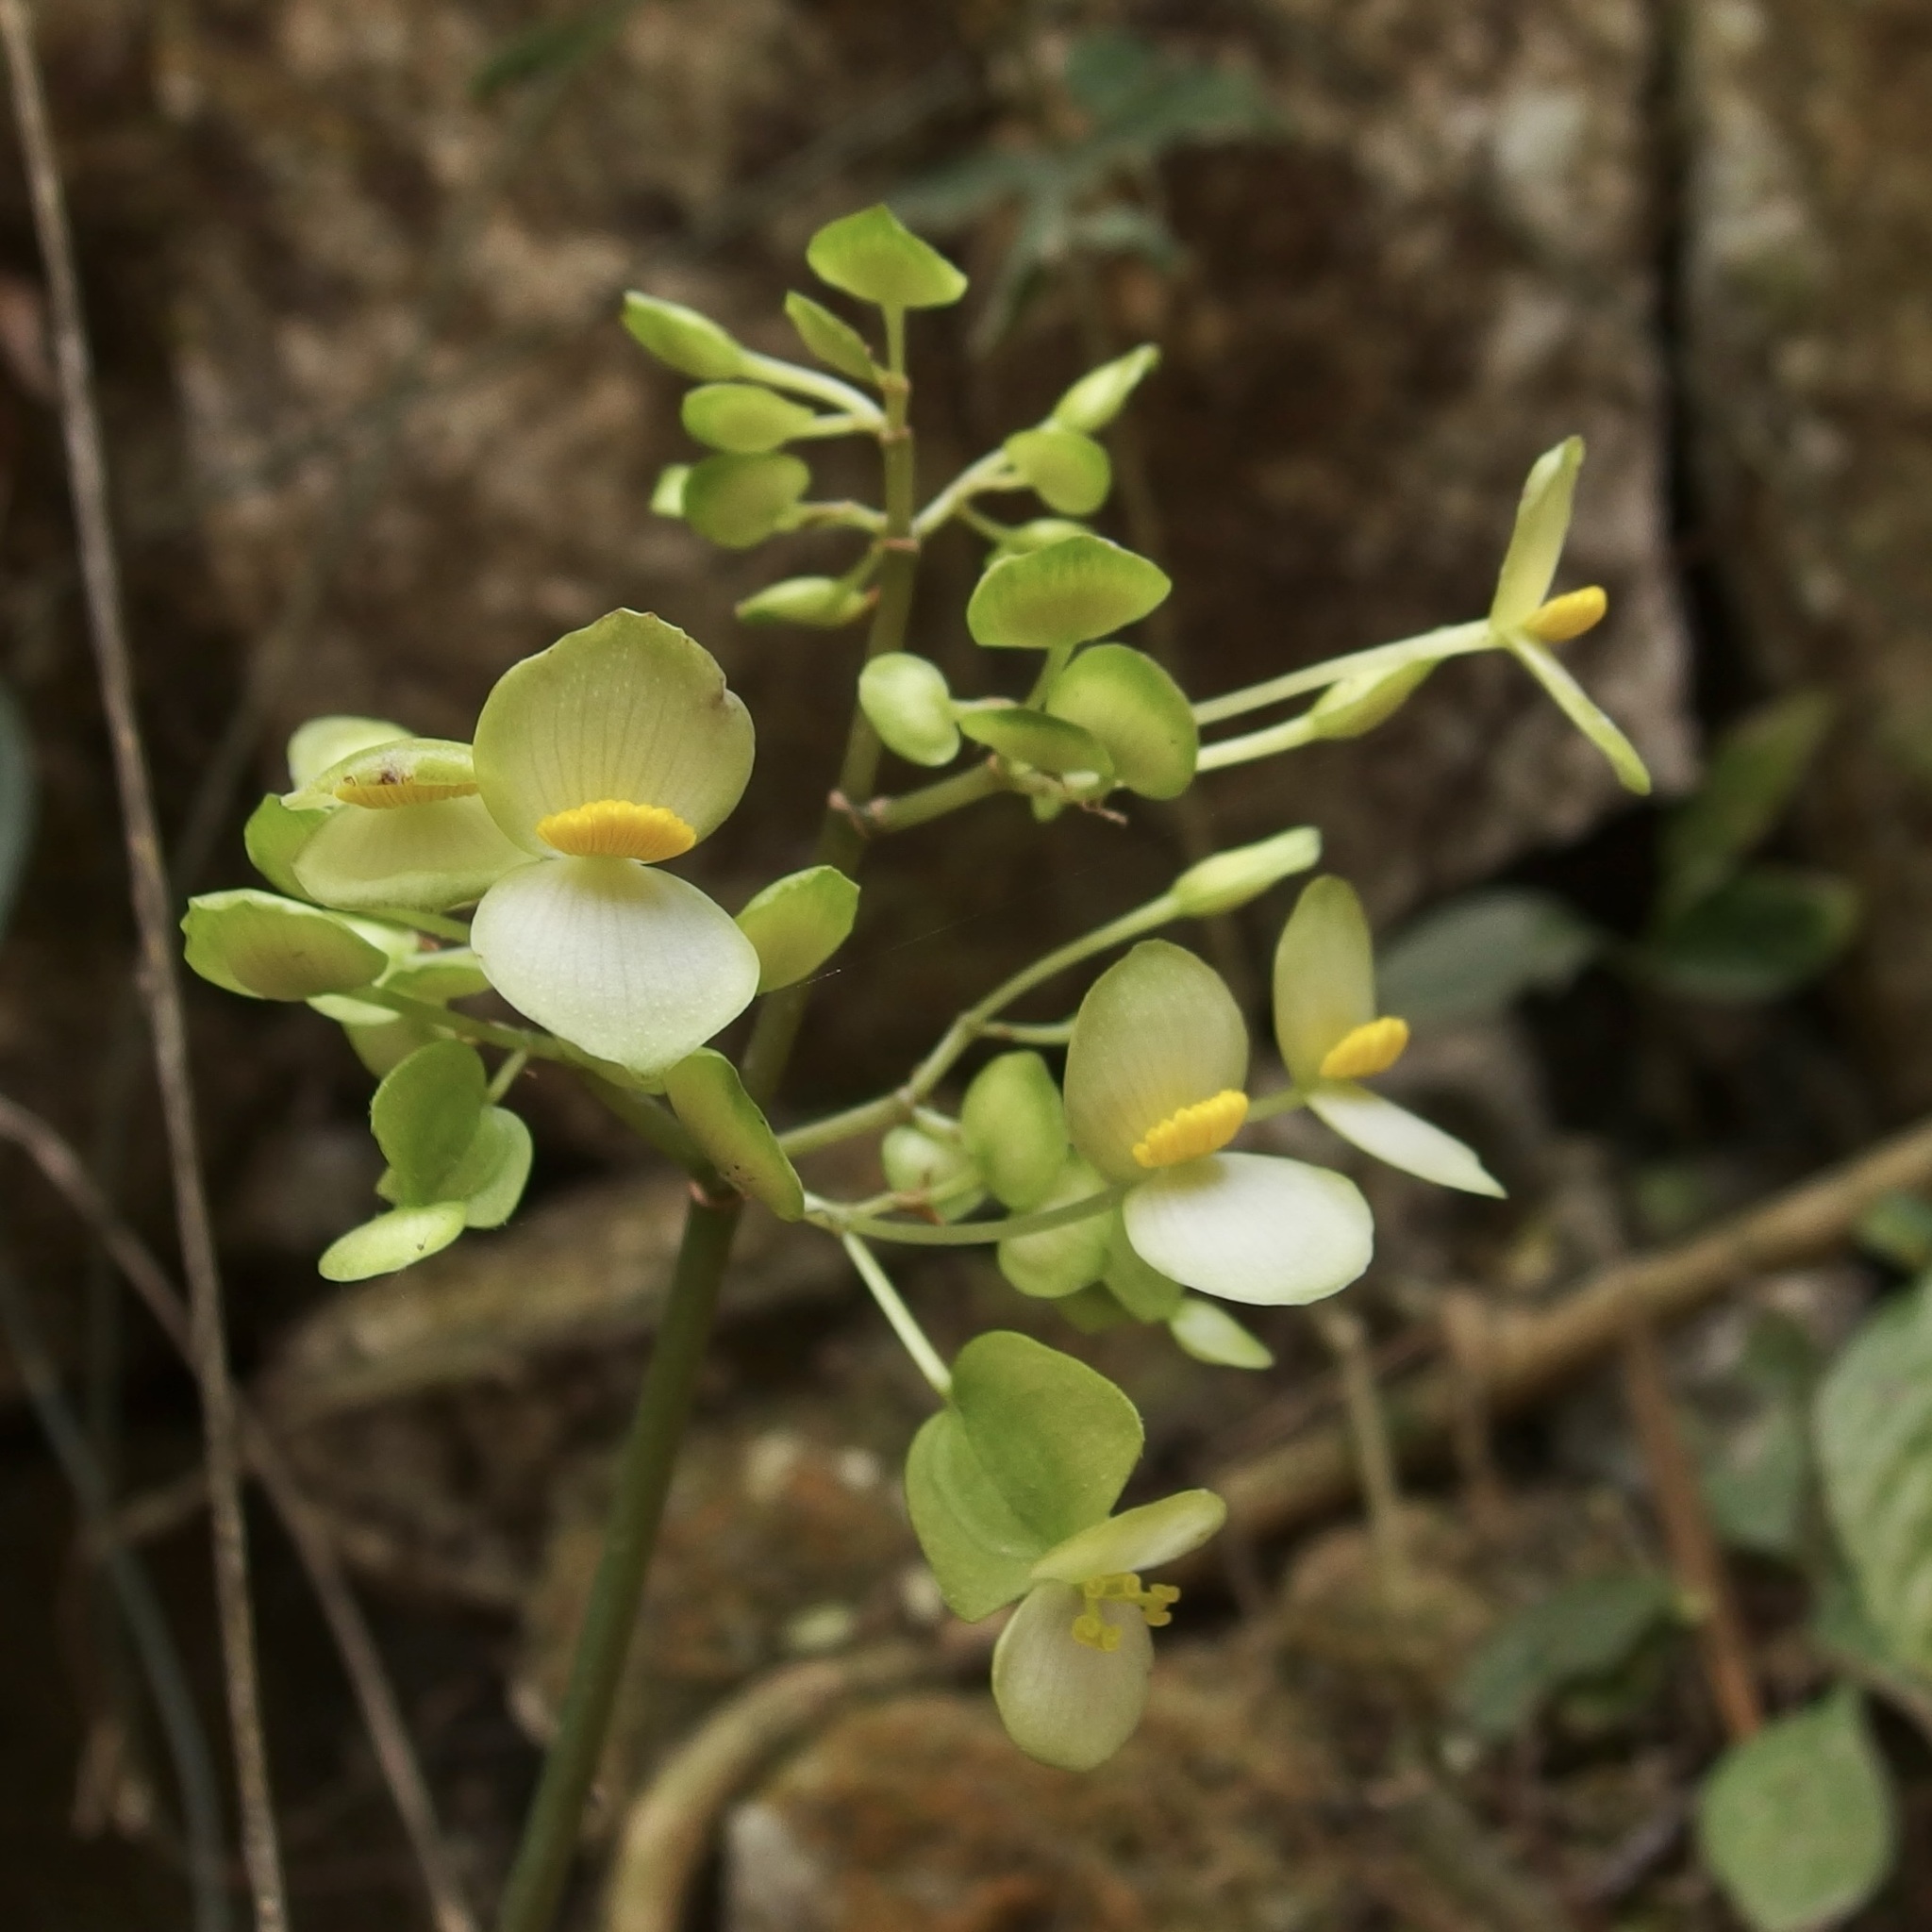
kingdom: Plantae
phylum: Tracheophyta
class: Magnoliopsida
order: Cucurbitales
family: Begoniaceae
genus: Begonia
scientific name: Begonia thiemei
